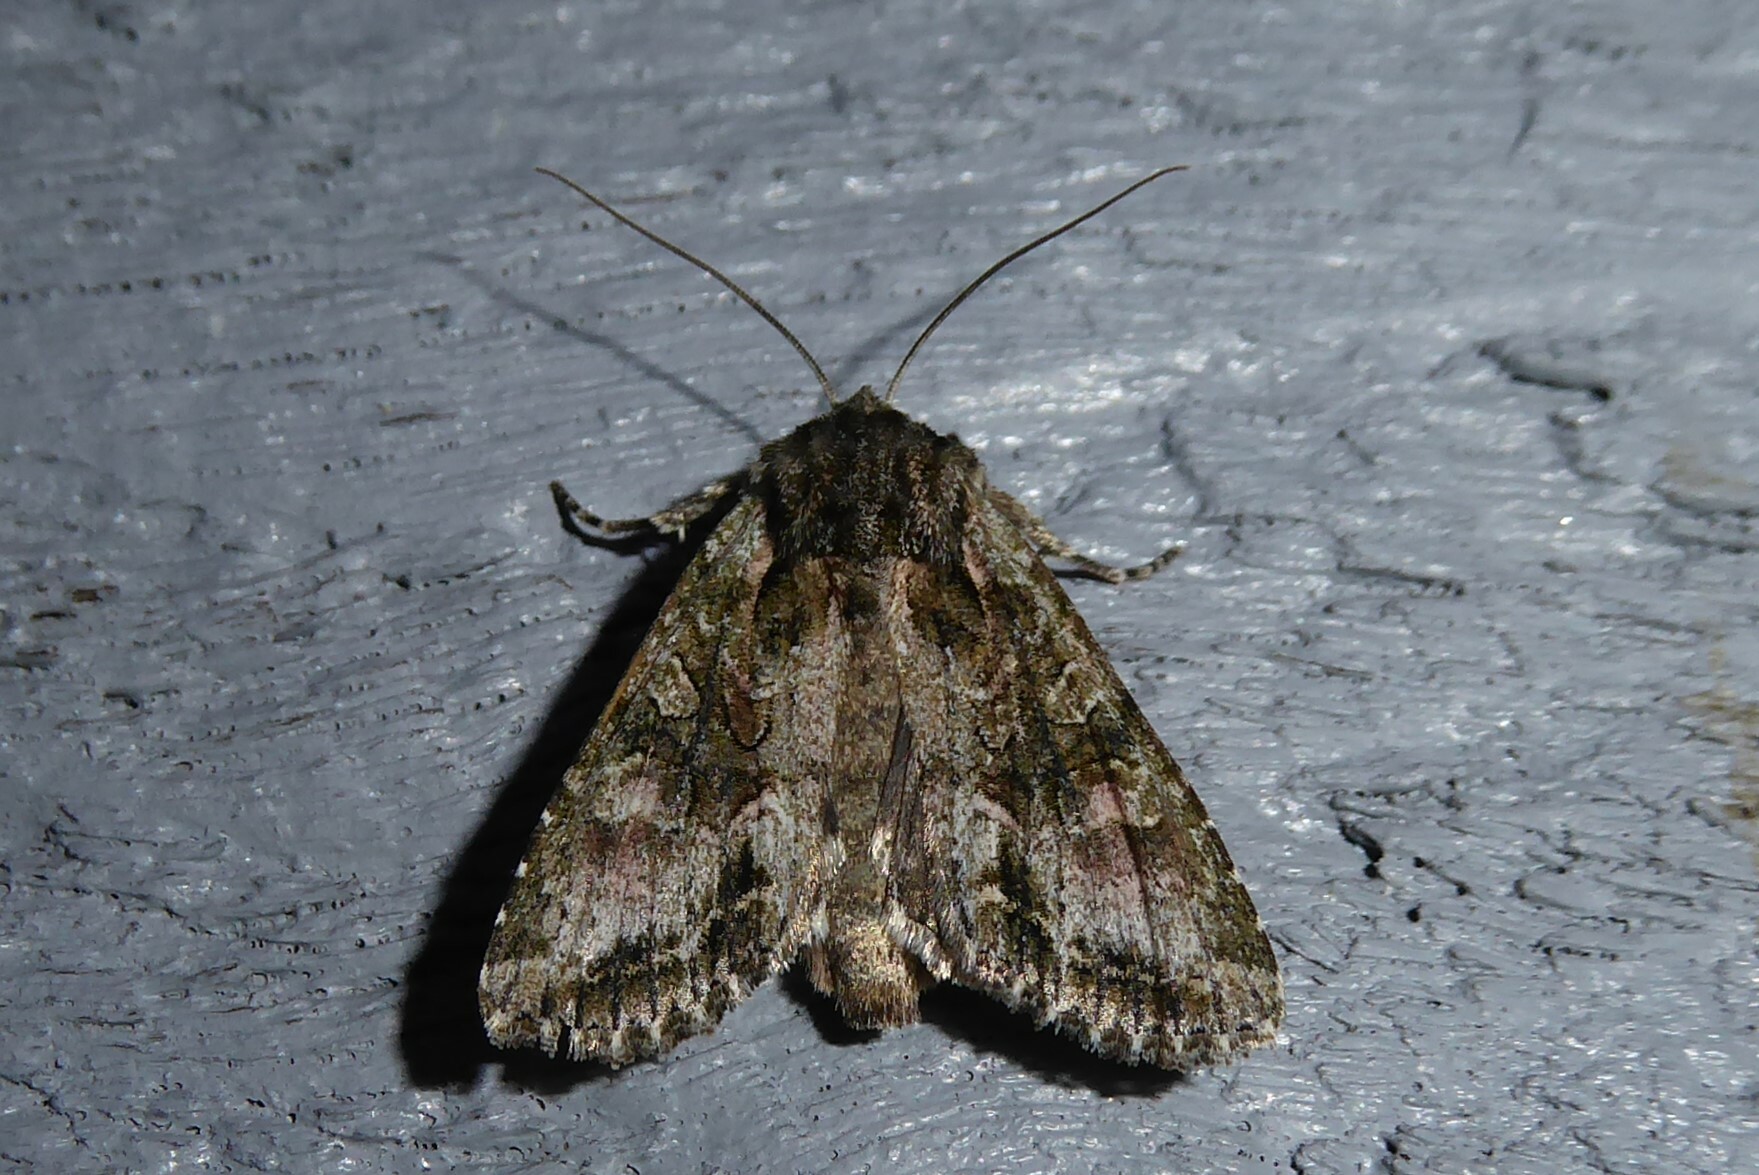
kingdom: Animalia
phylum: Arthropoda
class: Insecta
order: Lepidoptera
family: Noctuidae
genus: Ichneutica
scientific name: Ichneutica mutans
